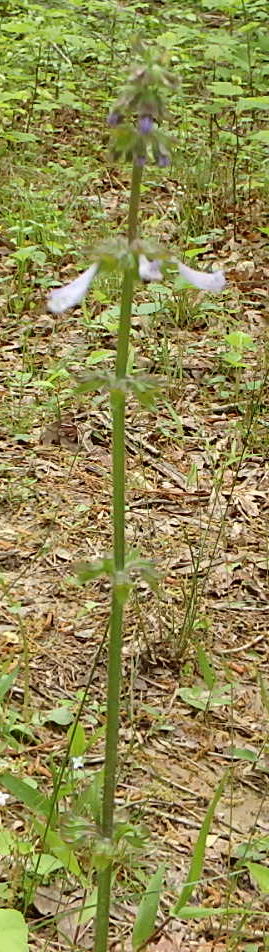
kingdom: Plantae
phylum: Tracheophyta
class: Magnoliopsida
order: Lamiales
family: Lamiaceae
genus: Salvia
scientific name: Salvia lyrata
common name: Cancerweed
